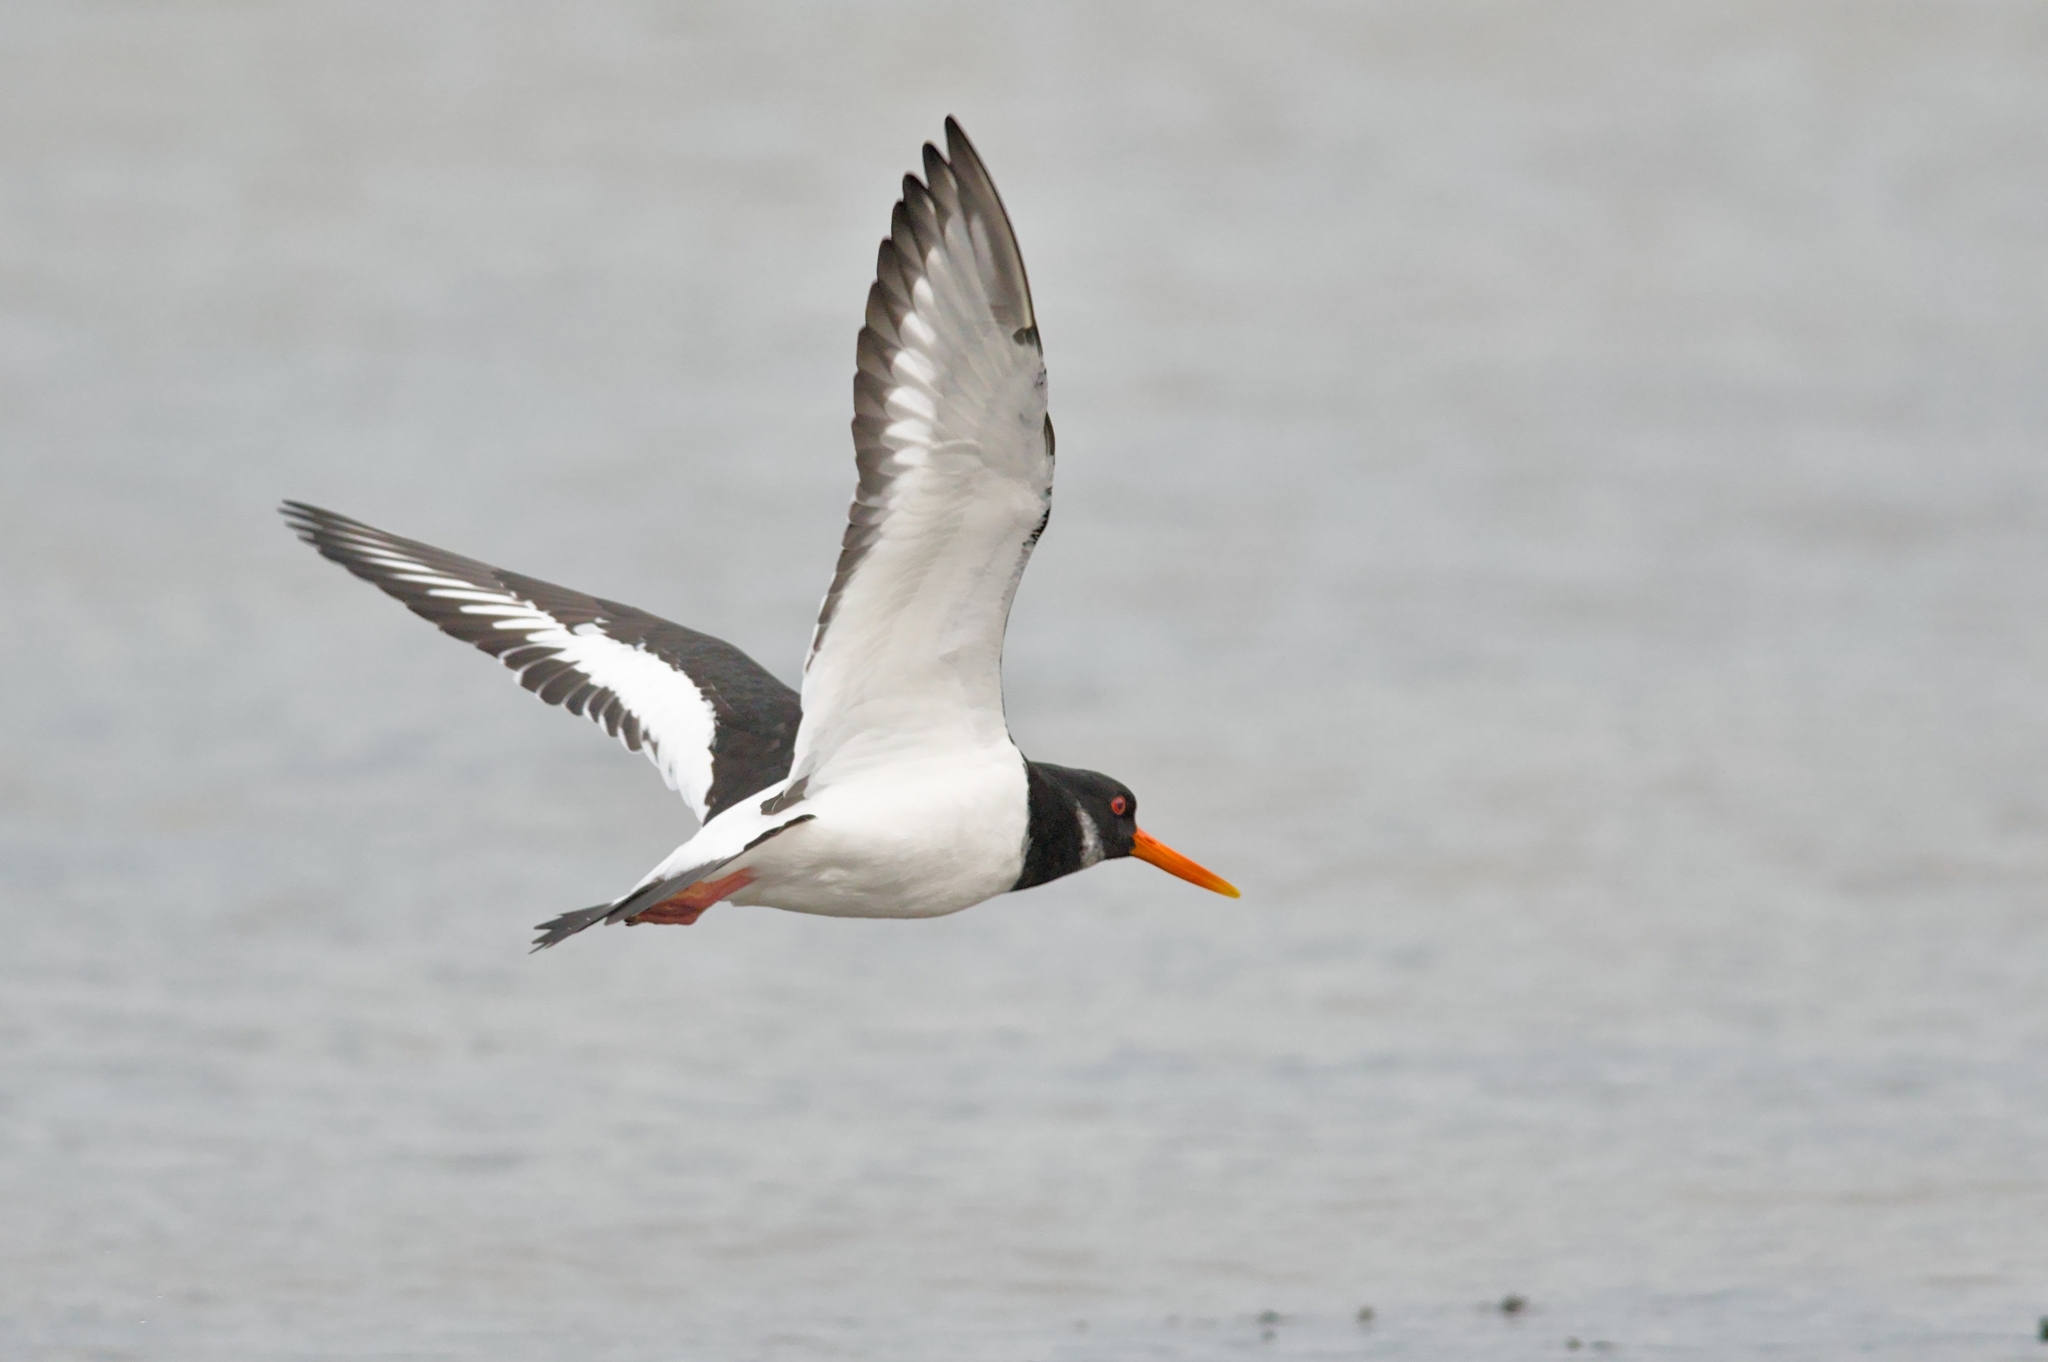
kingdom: Animalia
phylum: Chordata
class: Aves
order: Charadriiformes
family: Haematopodidae
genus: Haematopus
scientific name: Haematopus ostralegus
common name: Eurasian oystercatcher
